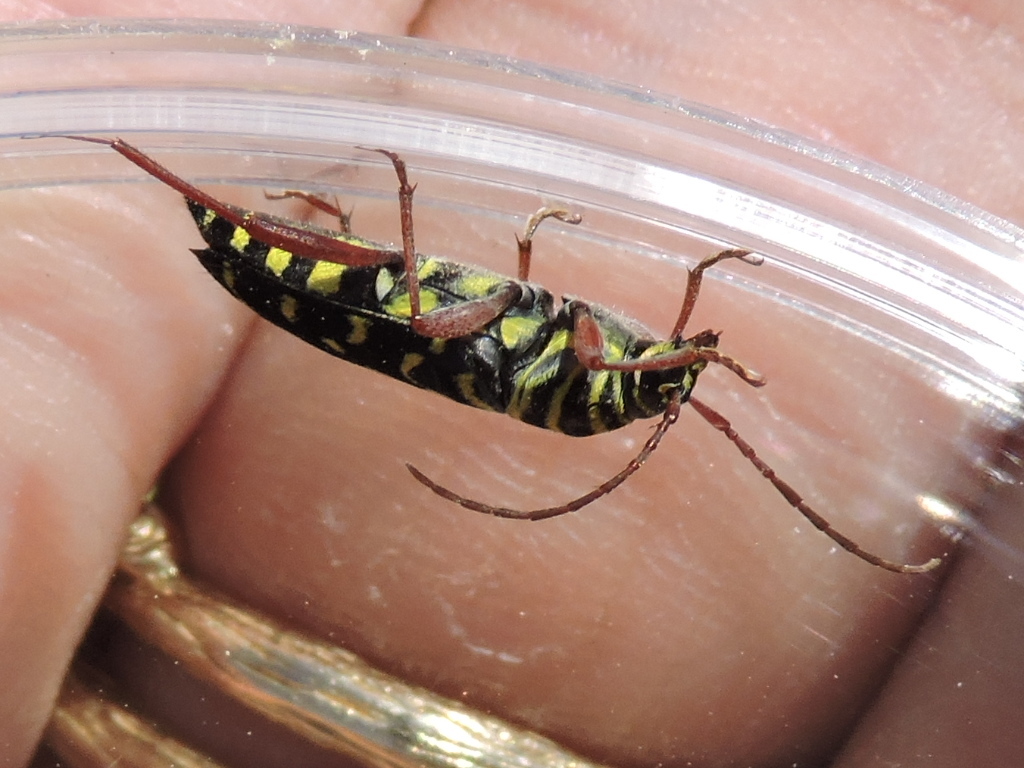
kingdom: Animalia
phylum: Arthropoda
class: Insecta
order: Coleoptera
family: Cerambycidae
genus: Placosternus
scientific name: Placosternus difficilis
